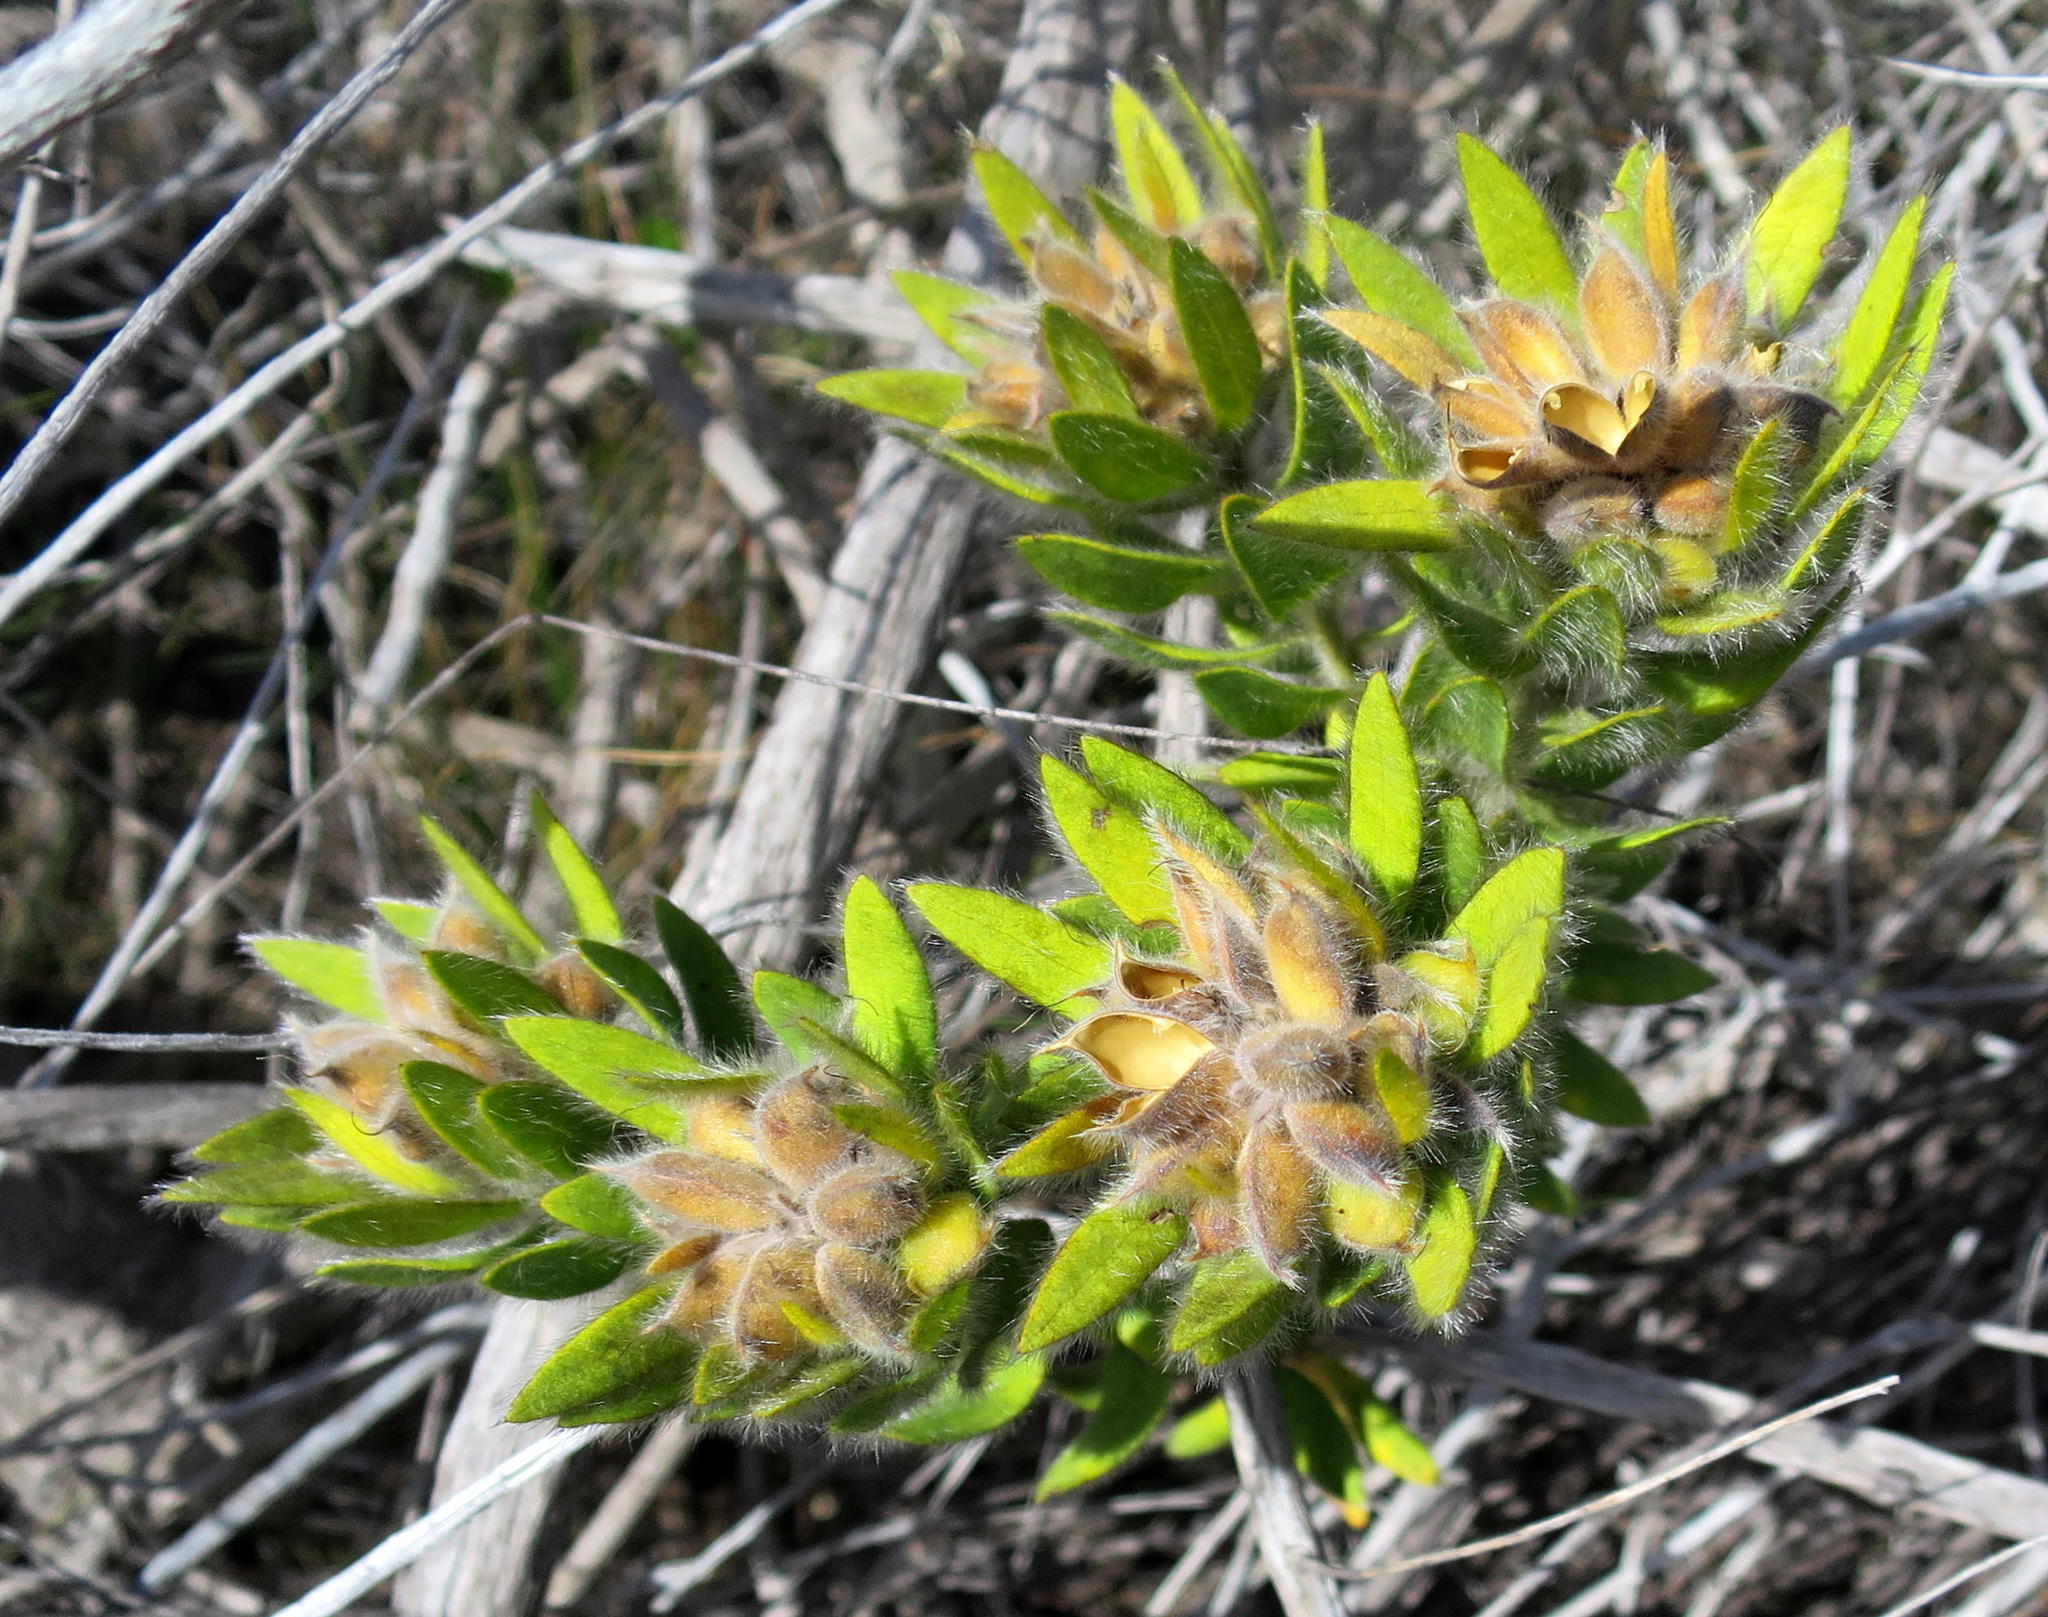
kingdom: Plantae
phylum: Tracheophyta
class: Magnoliopsida
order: Fabales
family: Fabaceae
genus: Xiphotheca
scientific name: Xiphotheca guthriei
